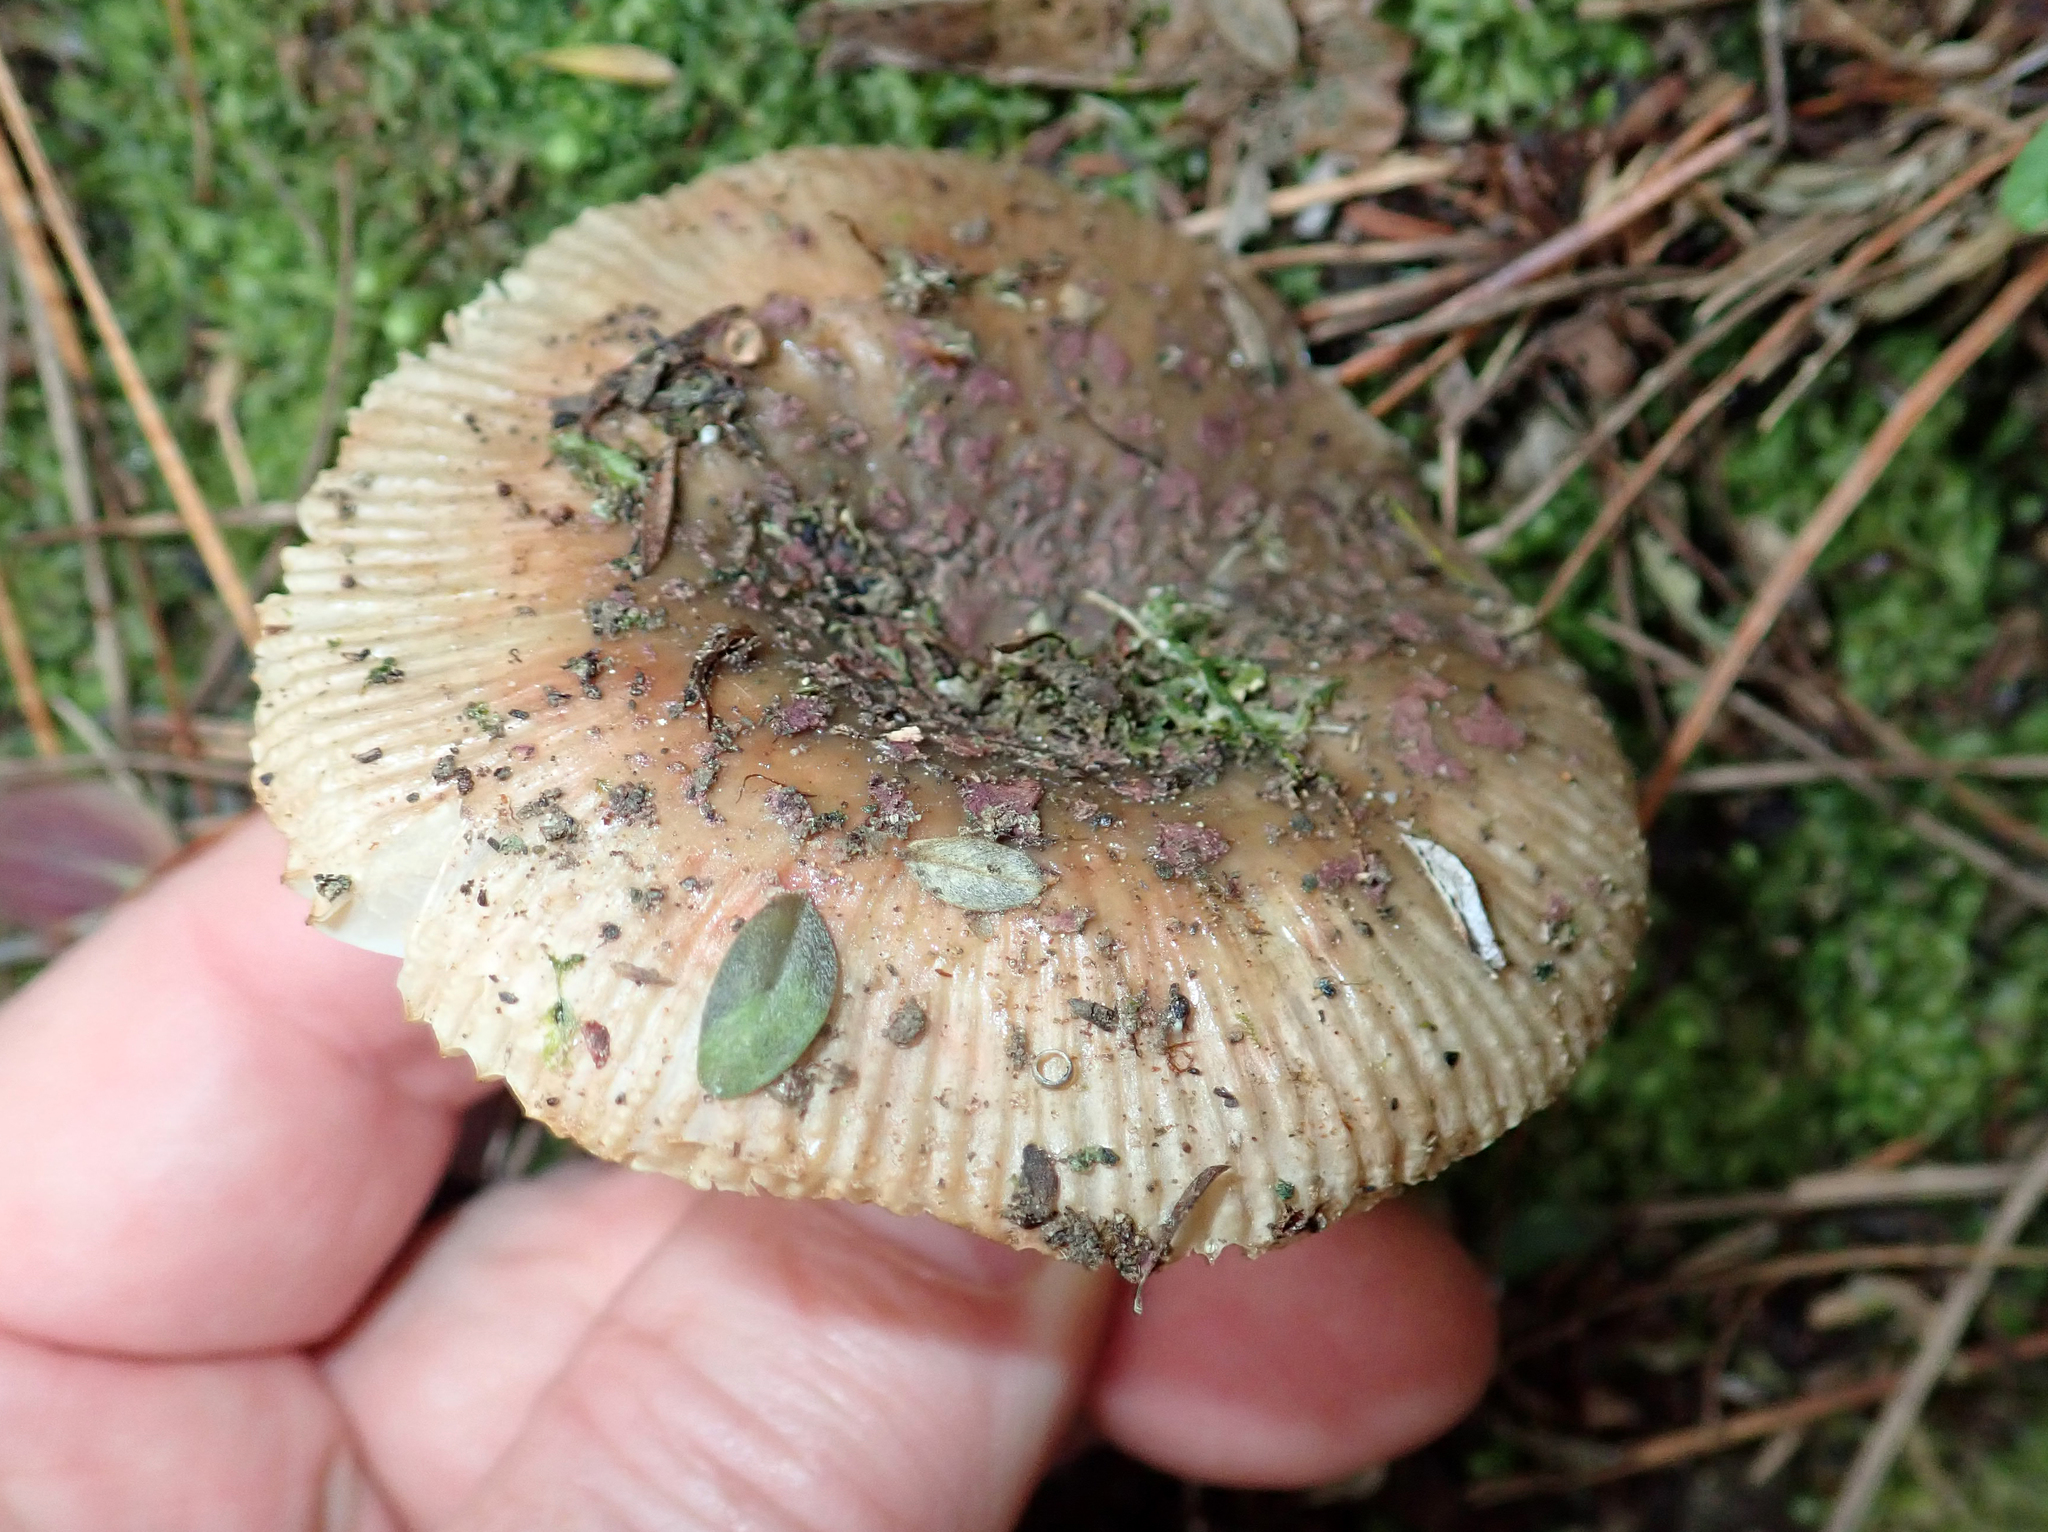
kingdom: Fungi
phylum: Basidiomycota
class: Agaricomycetes
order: Russulales
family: Russulaceae
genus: Russula
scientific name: Russula vinaceocuticulata
